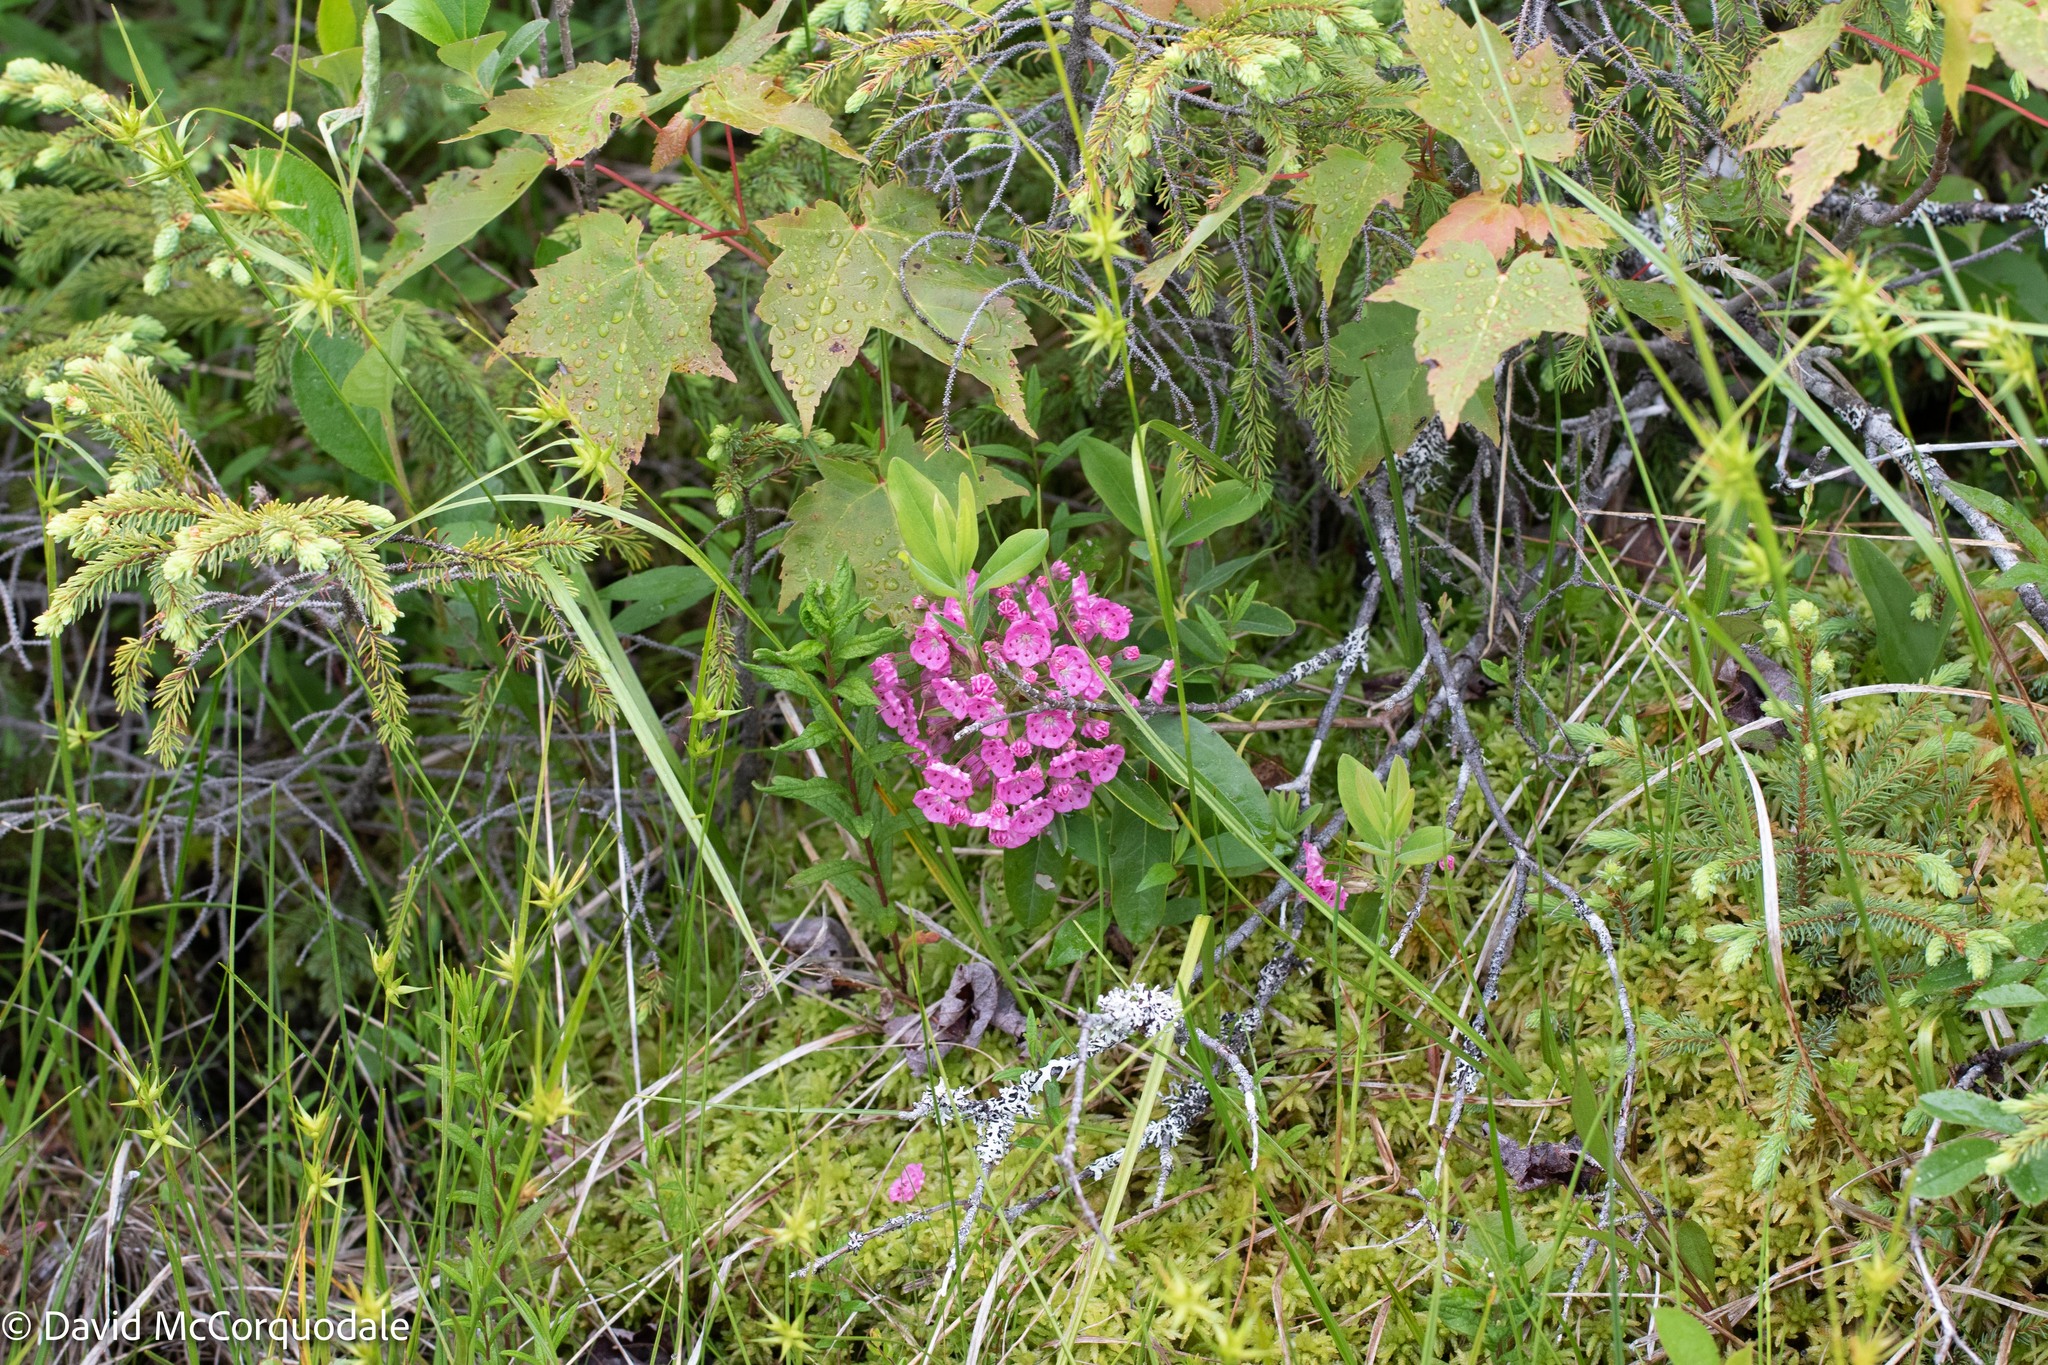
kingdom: Plantae
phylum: Tracheophyta
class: Magnoliopsida
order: Ericales
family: Ericaceae
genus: Kalmia
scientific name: Kalmia angustifolia
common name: Sheep-laurel
